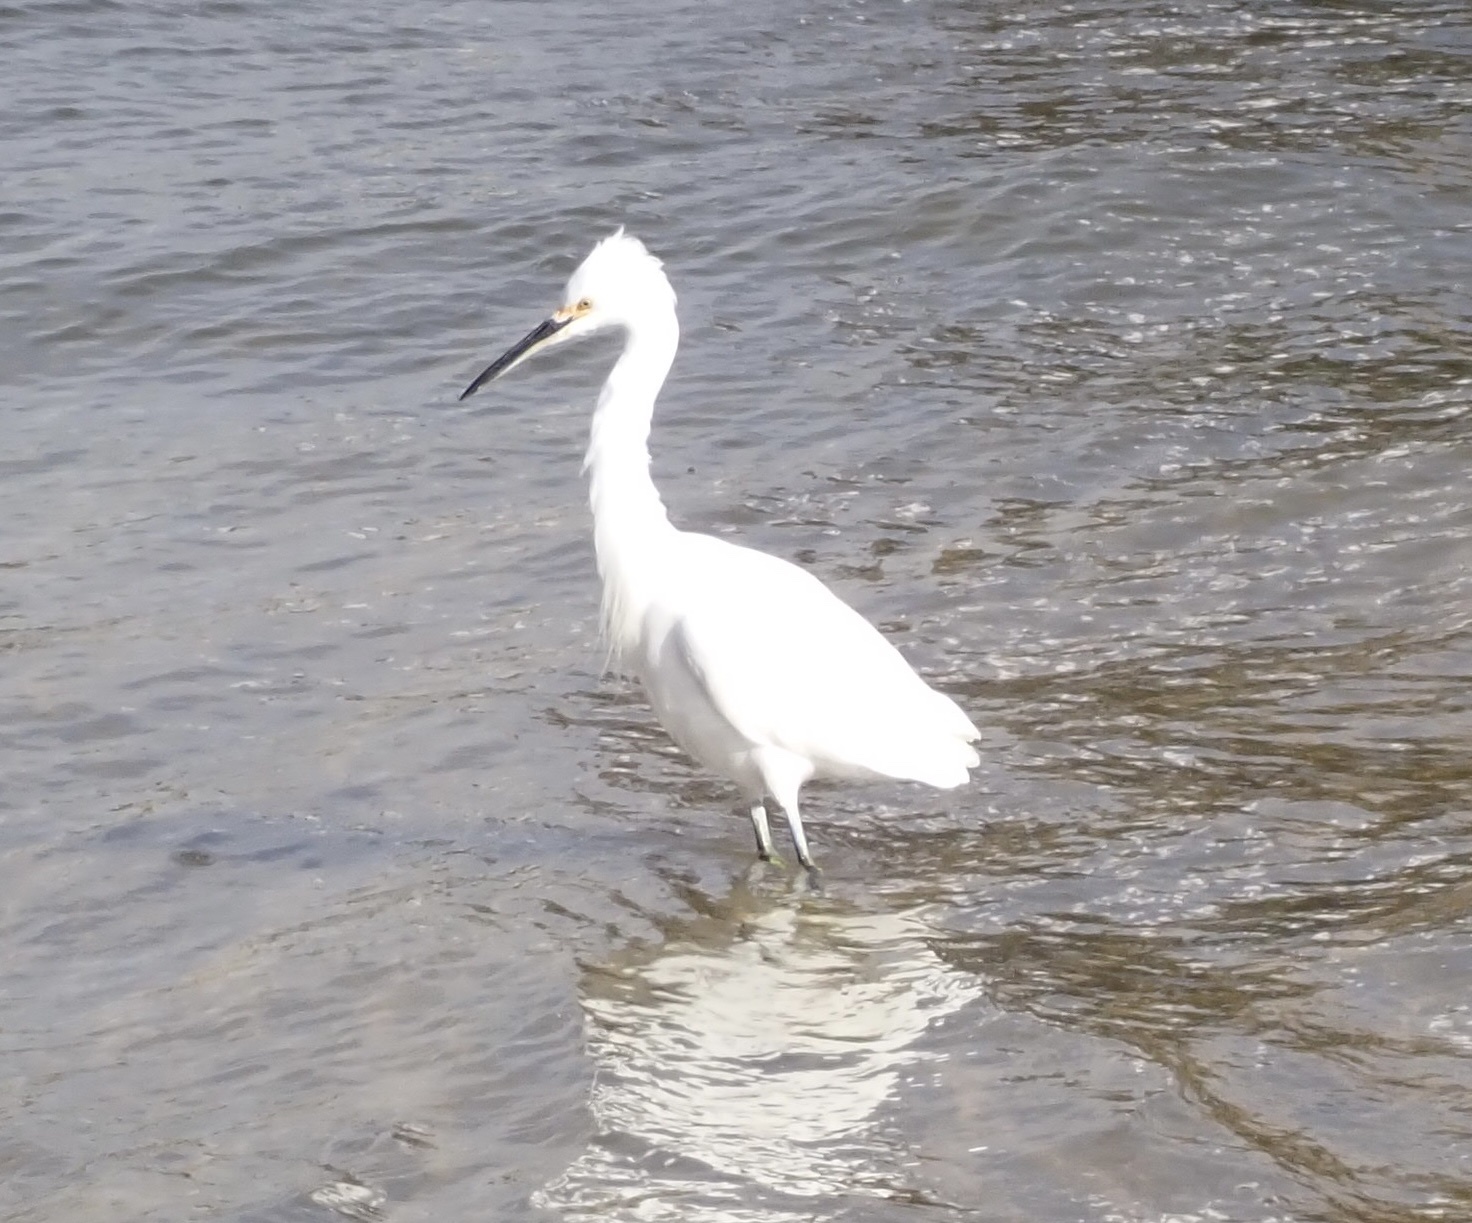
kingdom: Animalia
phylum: Chordata
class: Aves
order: Pelecaniformes
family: Ardeidae
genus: Egretta
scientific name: Egretta thula
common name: Snowy egret
